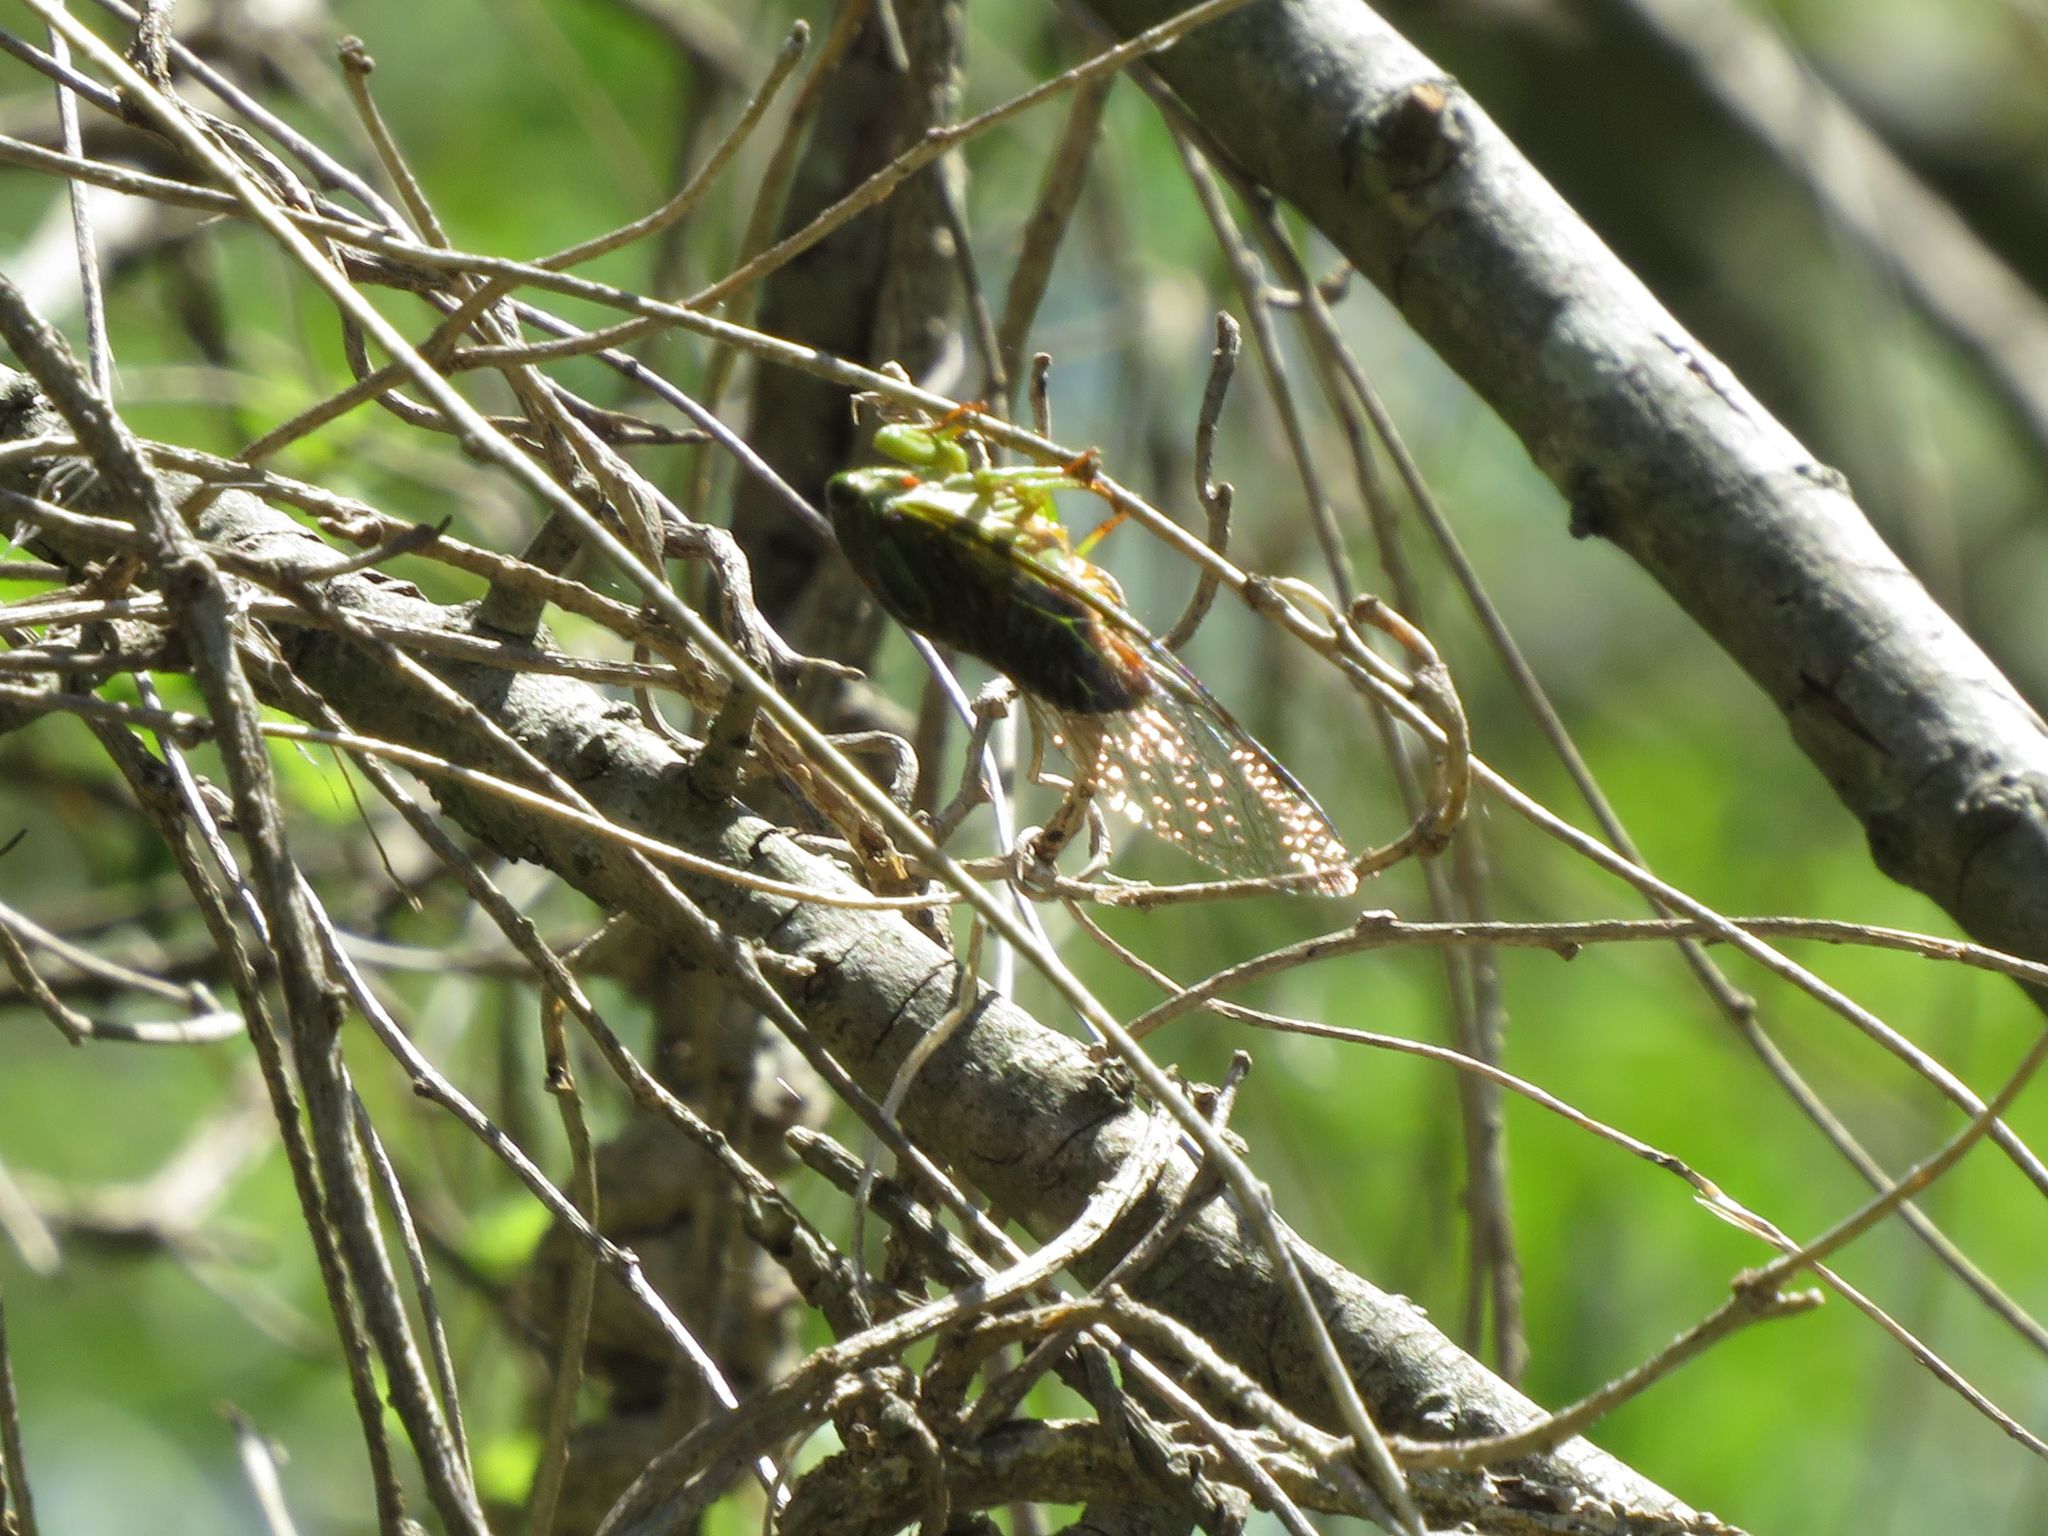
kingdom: Animalia
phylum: Arthropoda
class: Insecta
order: Hemiptera
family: Cicadidae
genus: Acanthoventris
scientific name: Acanthoventris drewseni
